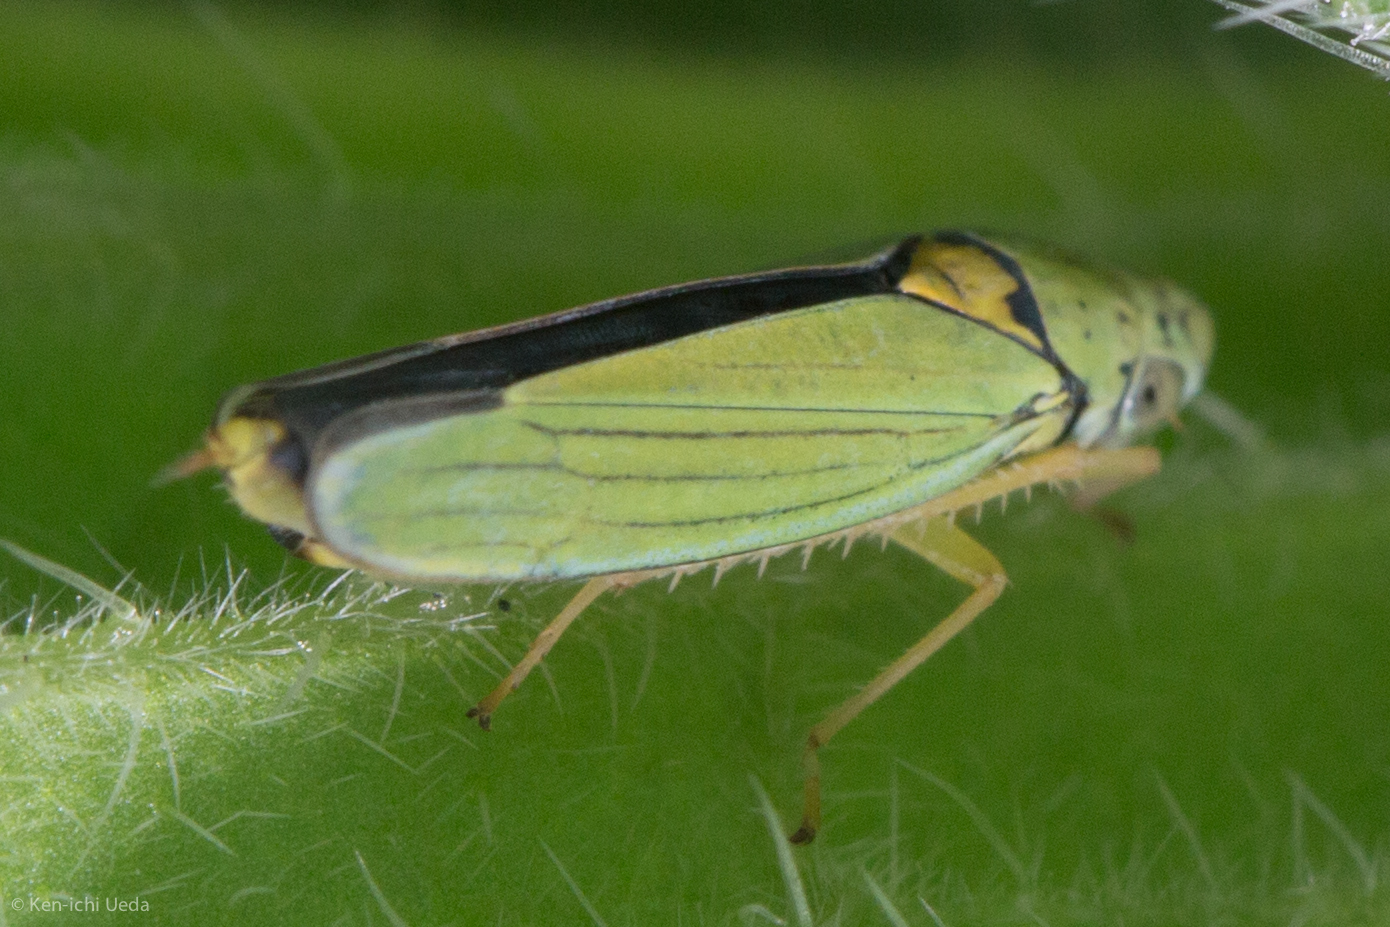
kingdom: Animalia
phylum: Arthropoda
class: Insecta
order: Hemiptera
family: Cicadellidae
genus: Graphocephala
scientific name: Graphocephala atropunctata
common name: Blue-green sharpshooter
